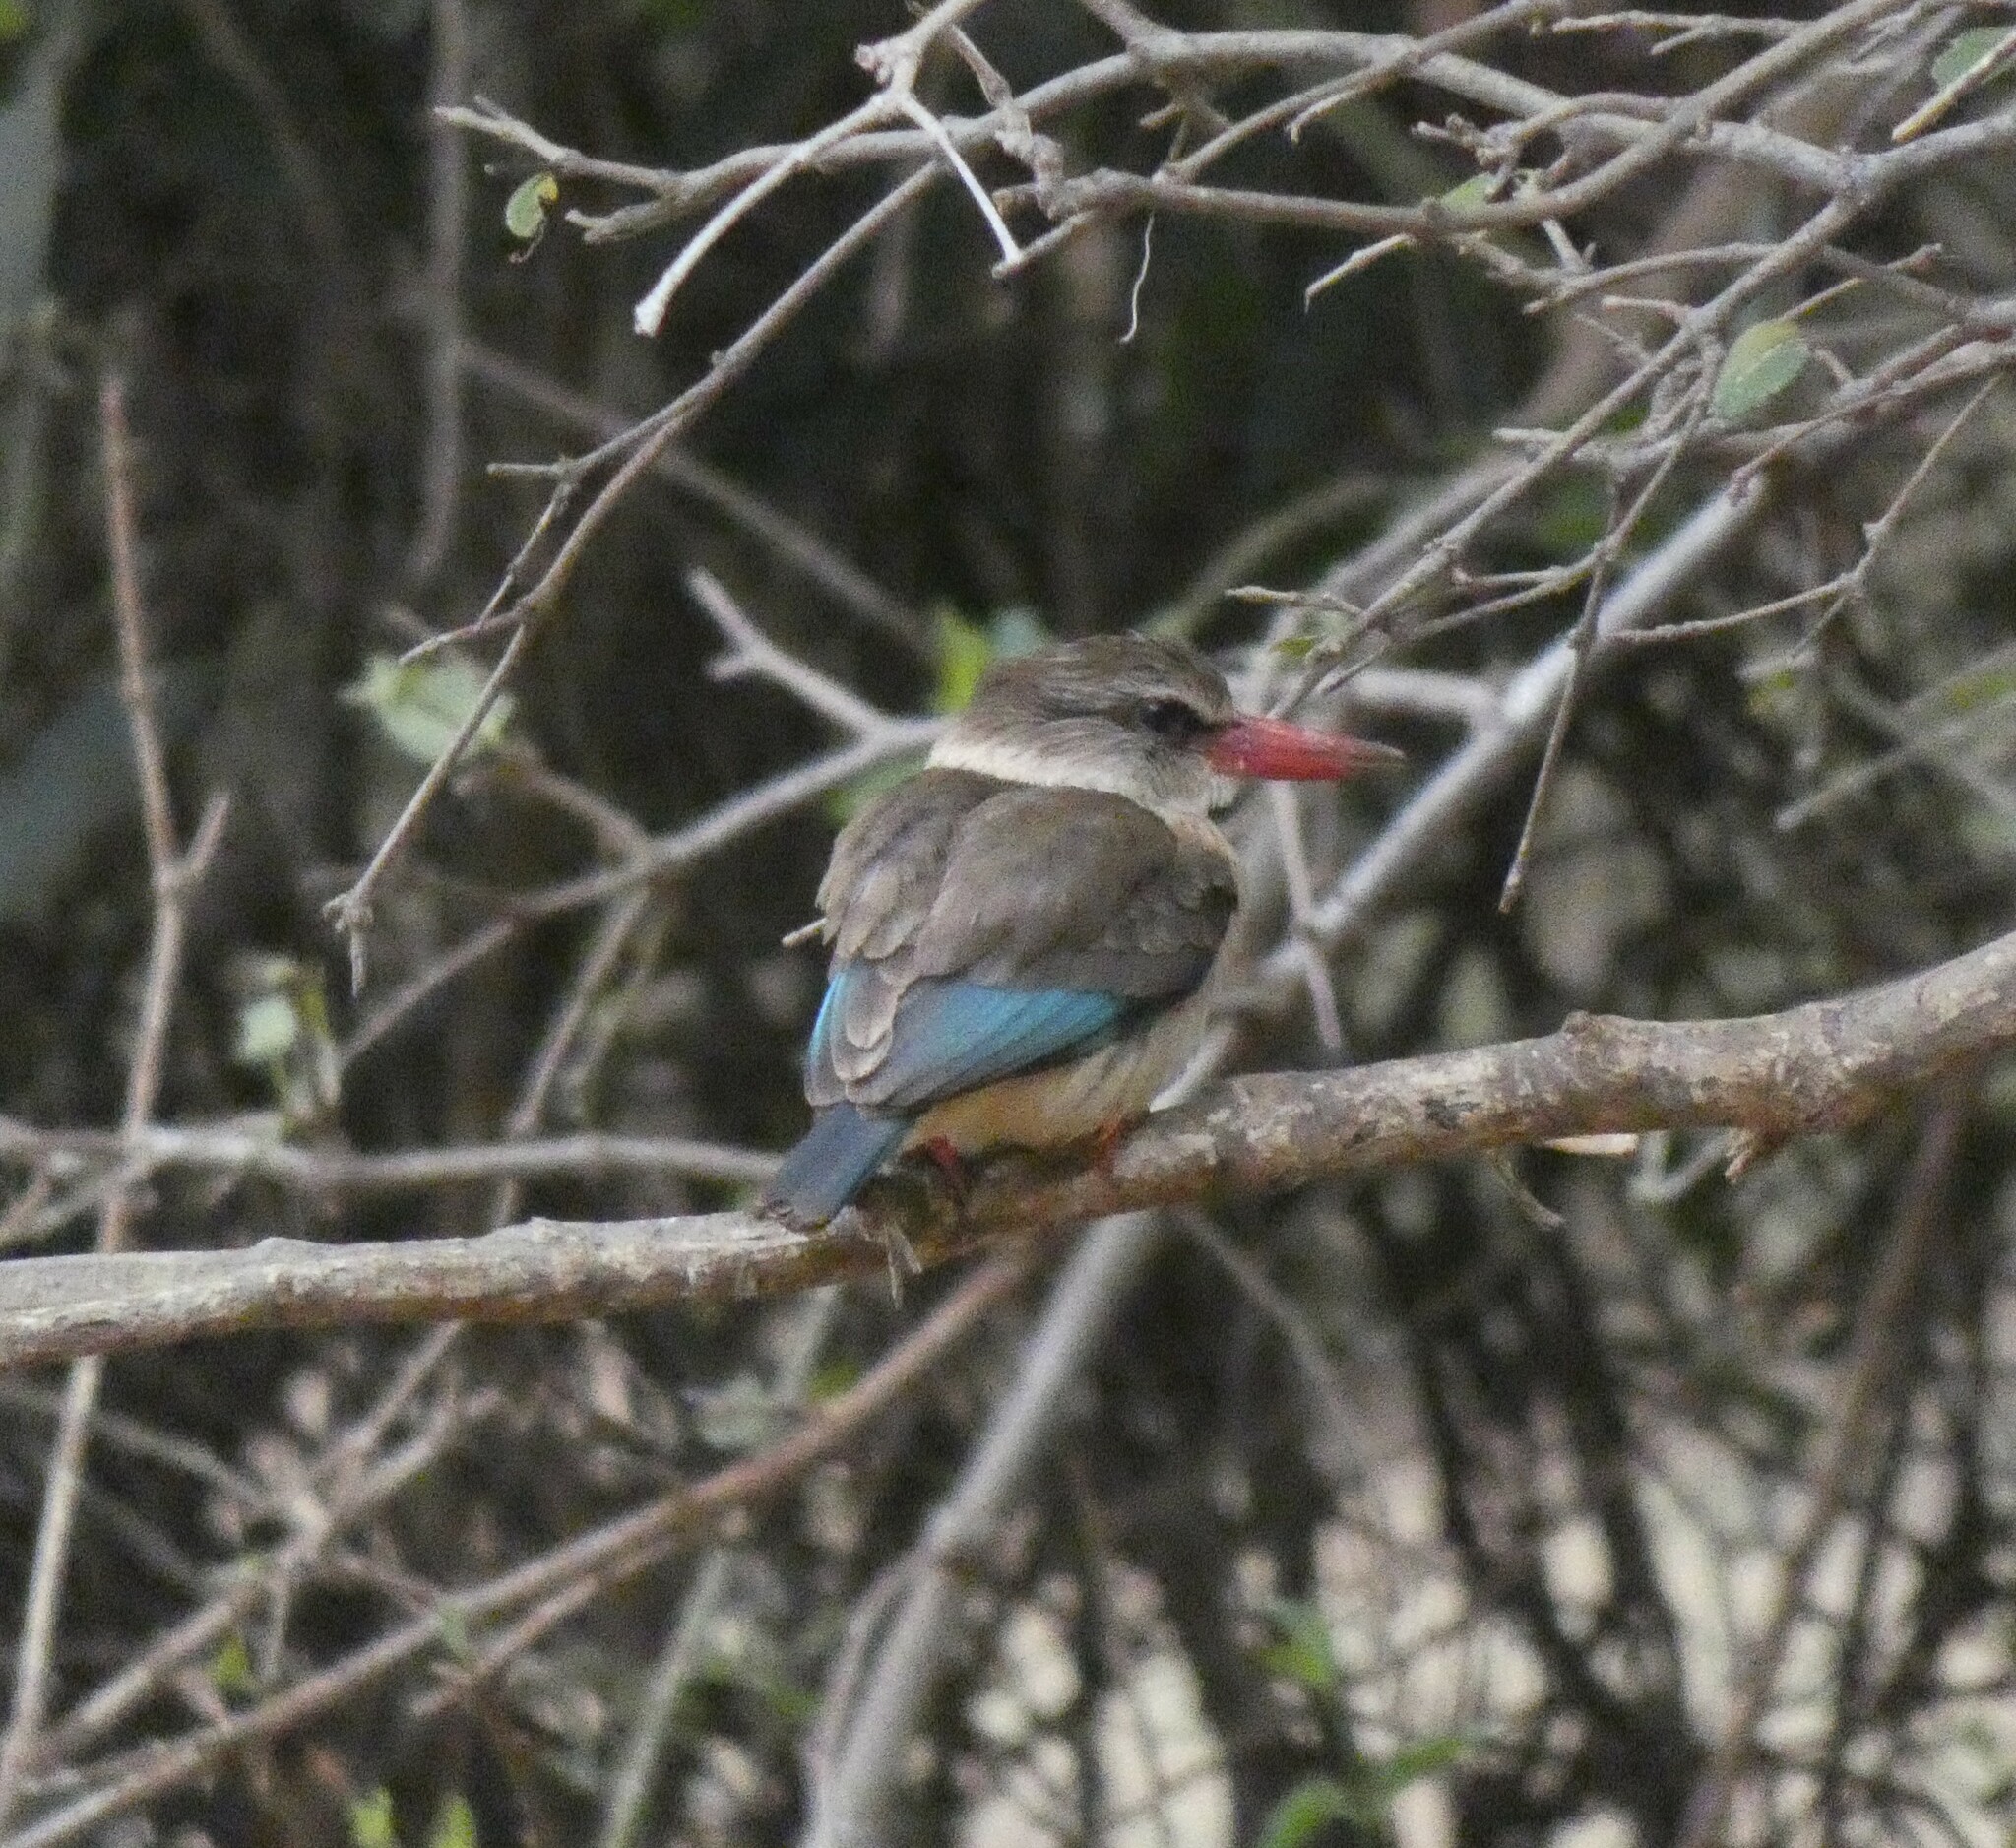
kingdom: Animalia
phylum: Chordata
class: Aves
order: Coraciiformes
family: Alcedinidae
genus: Halcyon
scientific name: Halcyon albiventris
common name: Brown-hooded kingfisher
